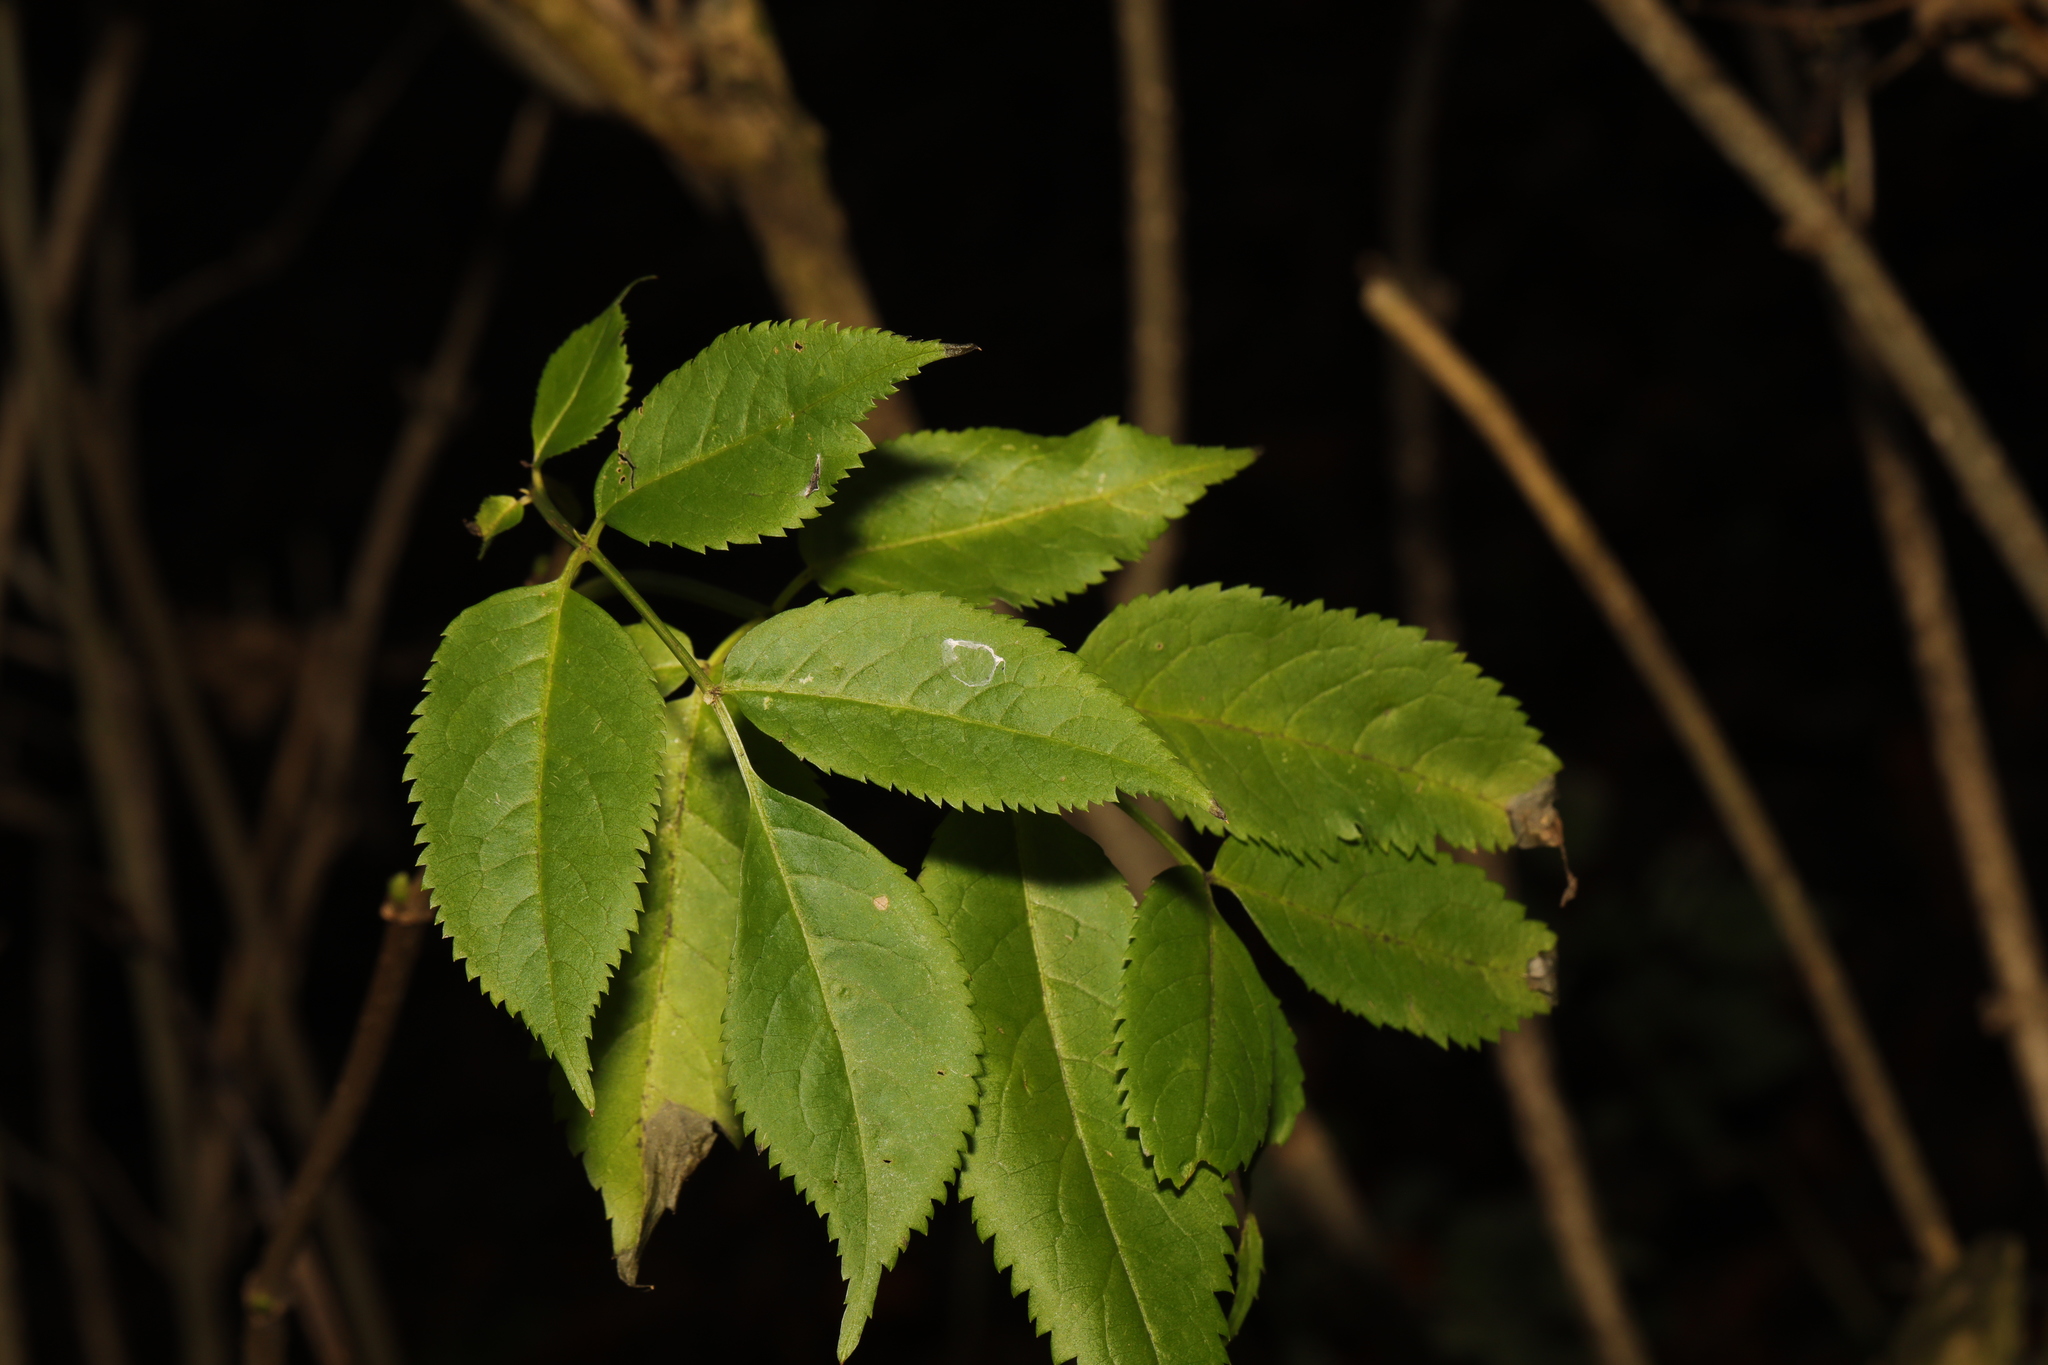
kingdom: Plantae
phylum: Tracheophyta
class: Magnoliopsida
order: Dipsacales
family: Viburnaceae
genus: Sambucus
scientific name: Sambucus nigra
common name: Elder
